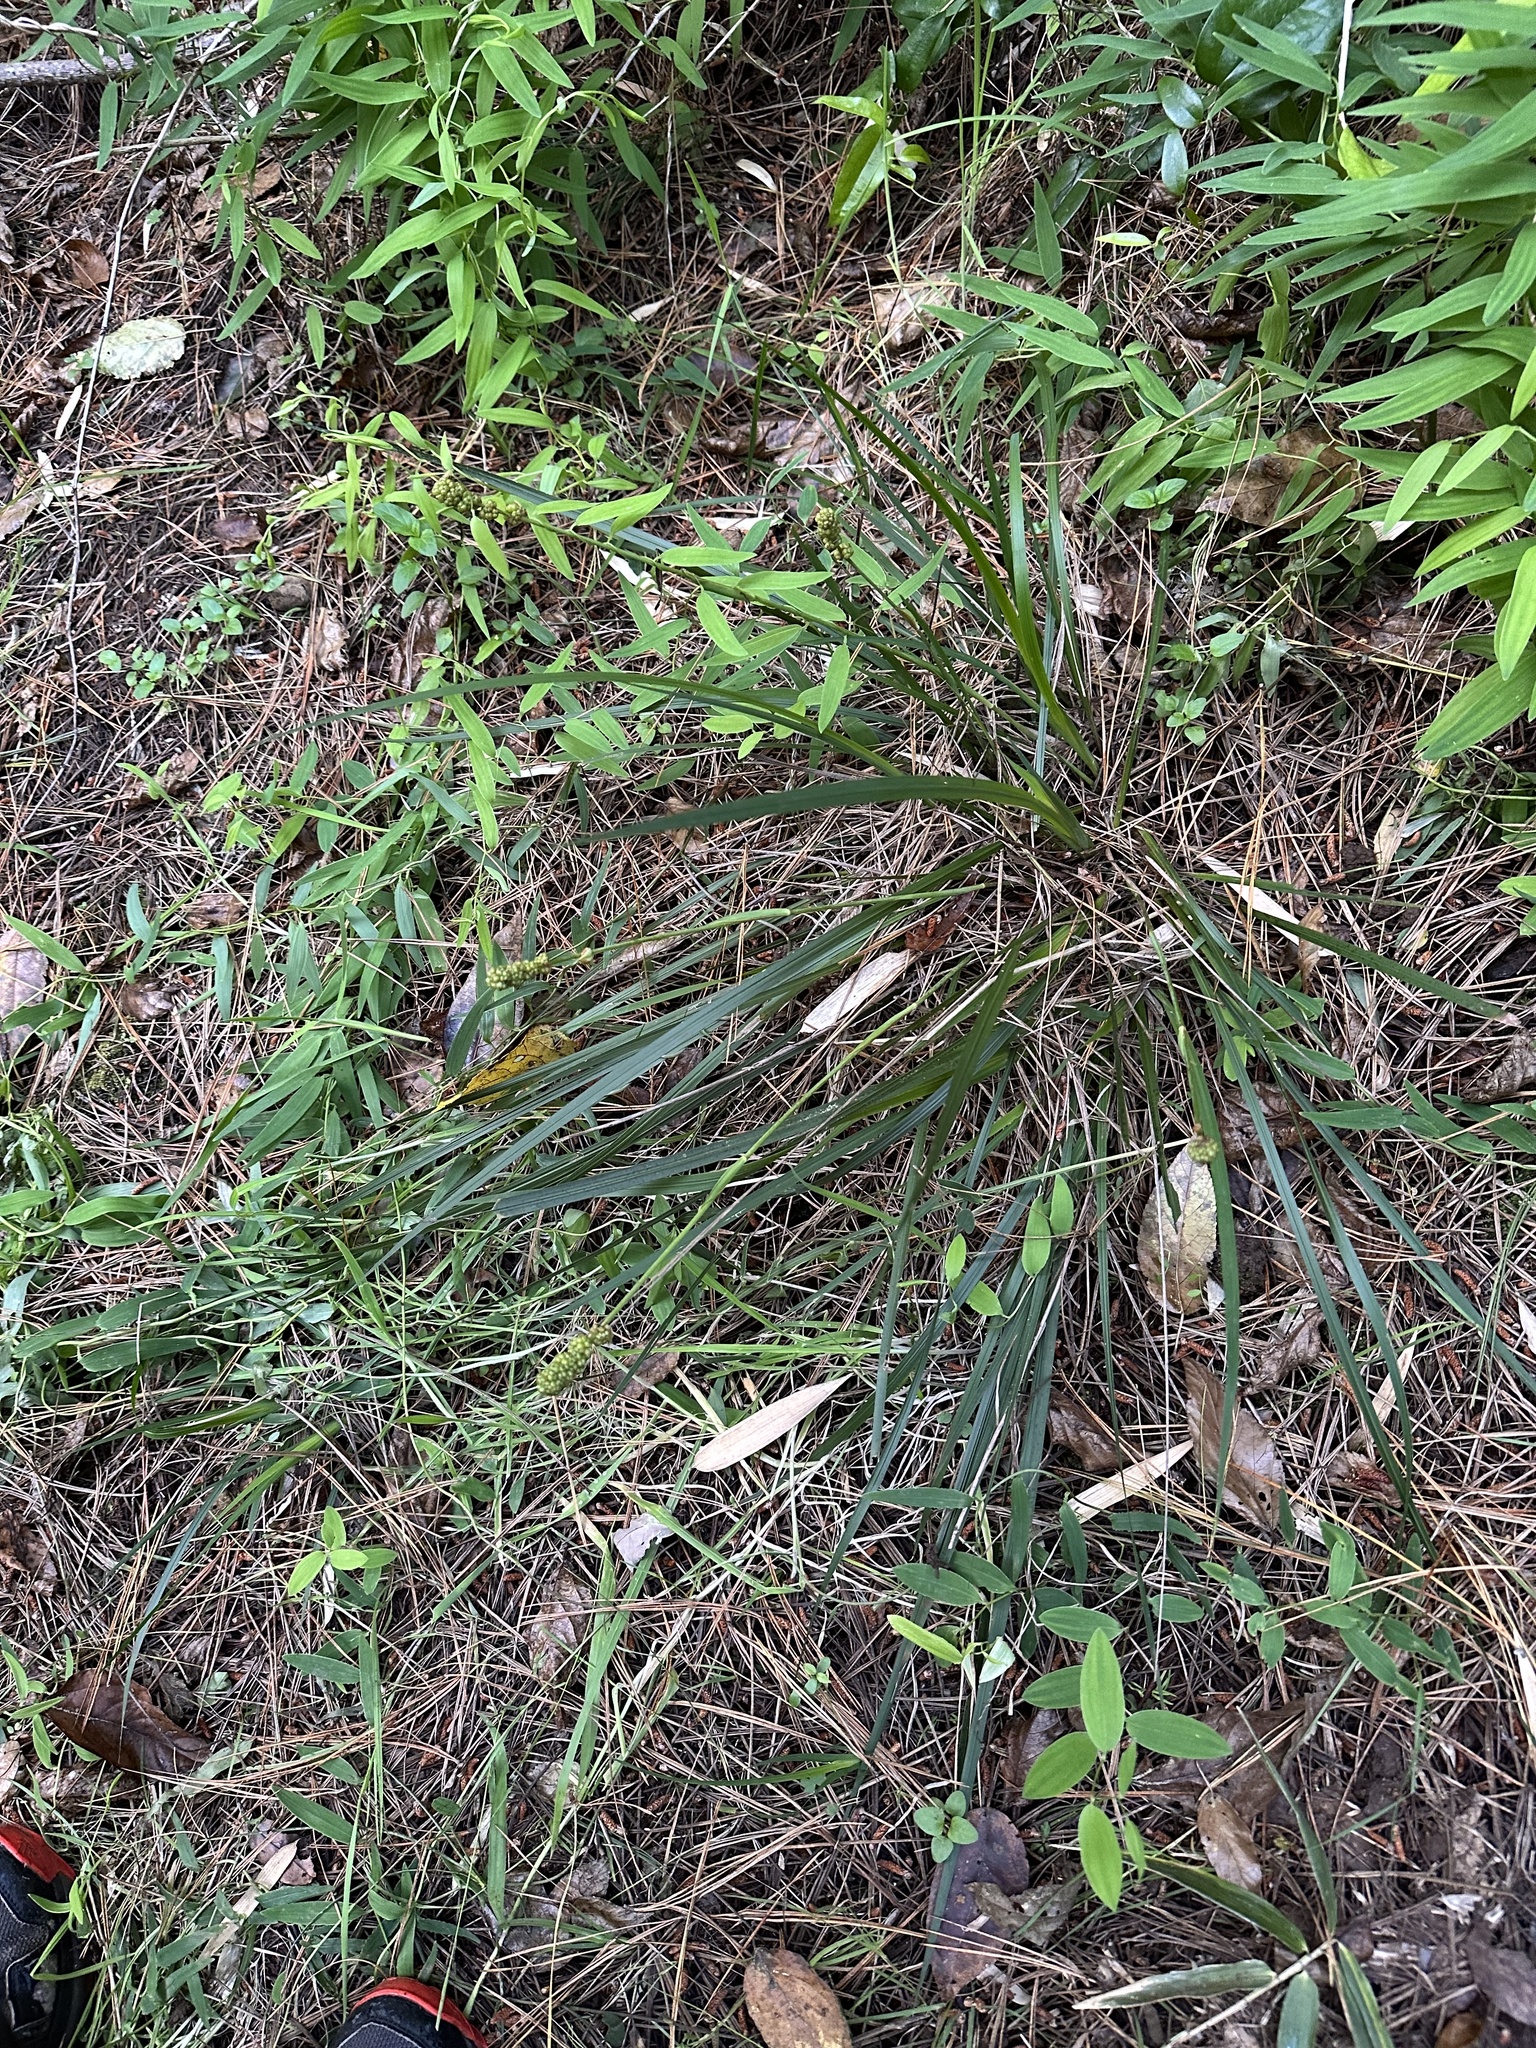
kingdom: Plantae
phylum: Tracheophyta
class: Liliopsida
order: Asparagales
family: Iridaceae
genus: Libertia
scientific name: Libertia sessiliflora
